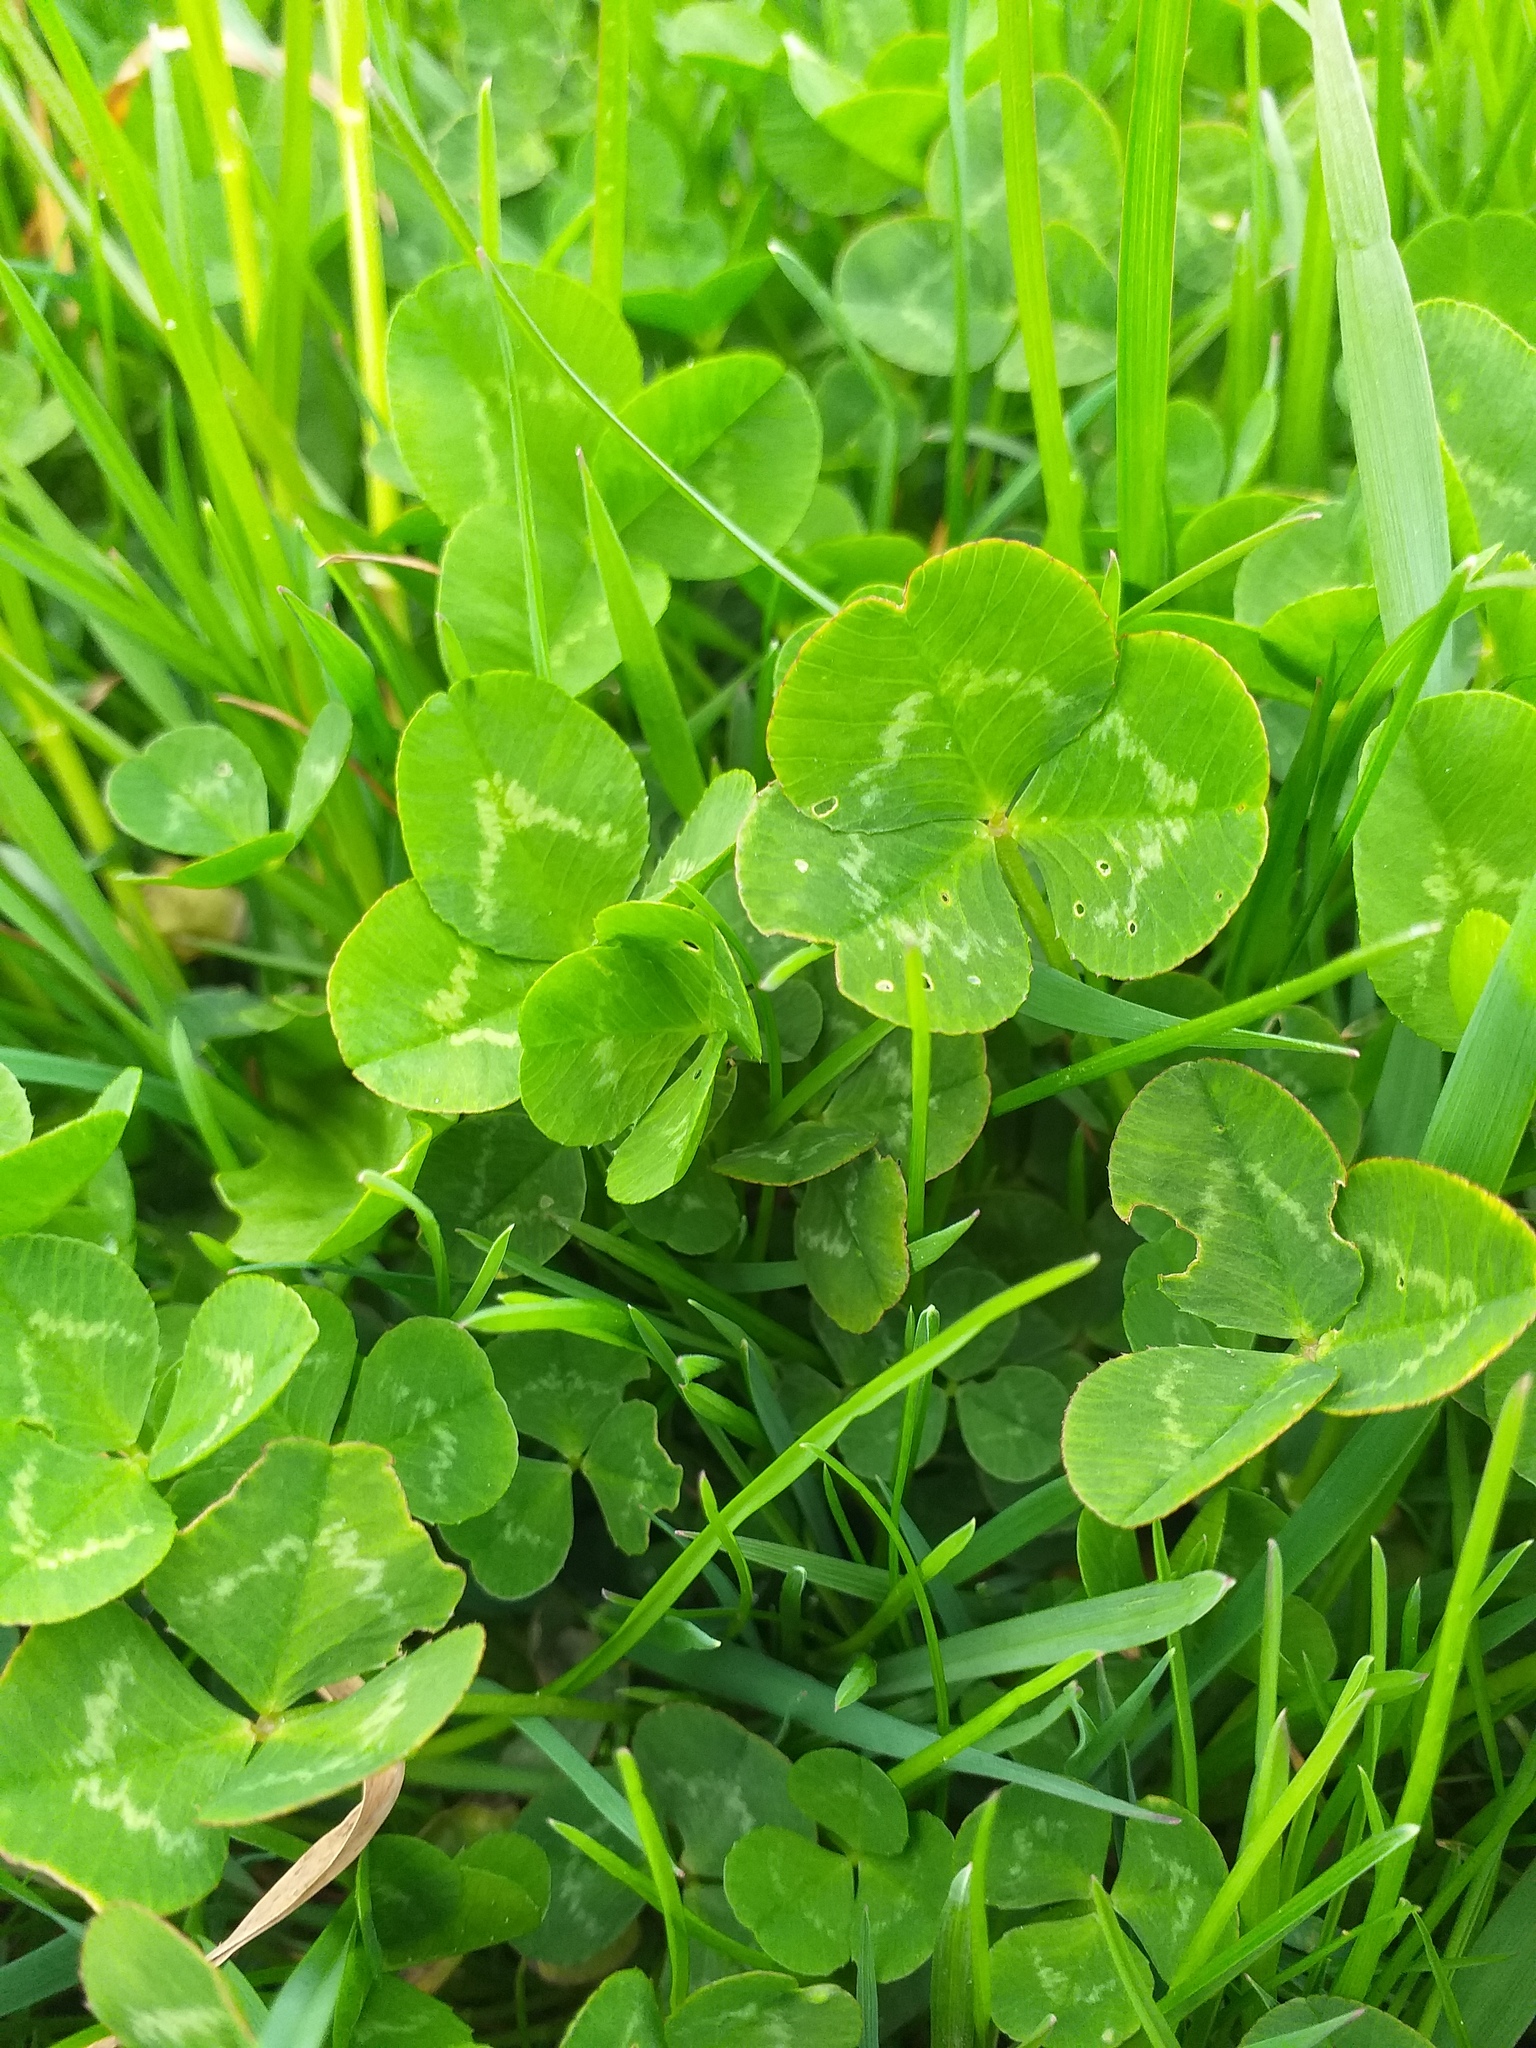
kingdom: Plantae
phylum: Tracheophyta
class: Magnoliopsida
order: Fabales
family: Fabaceae
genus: Trifolium
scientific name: Trifolium repens
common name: White clover
